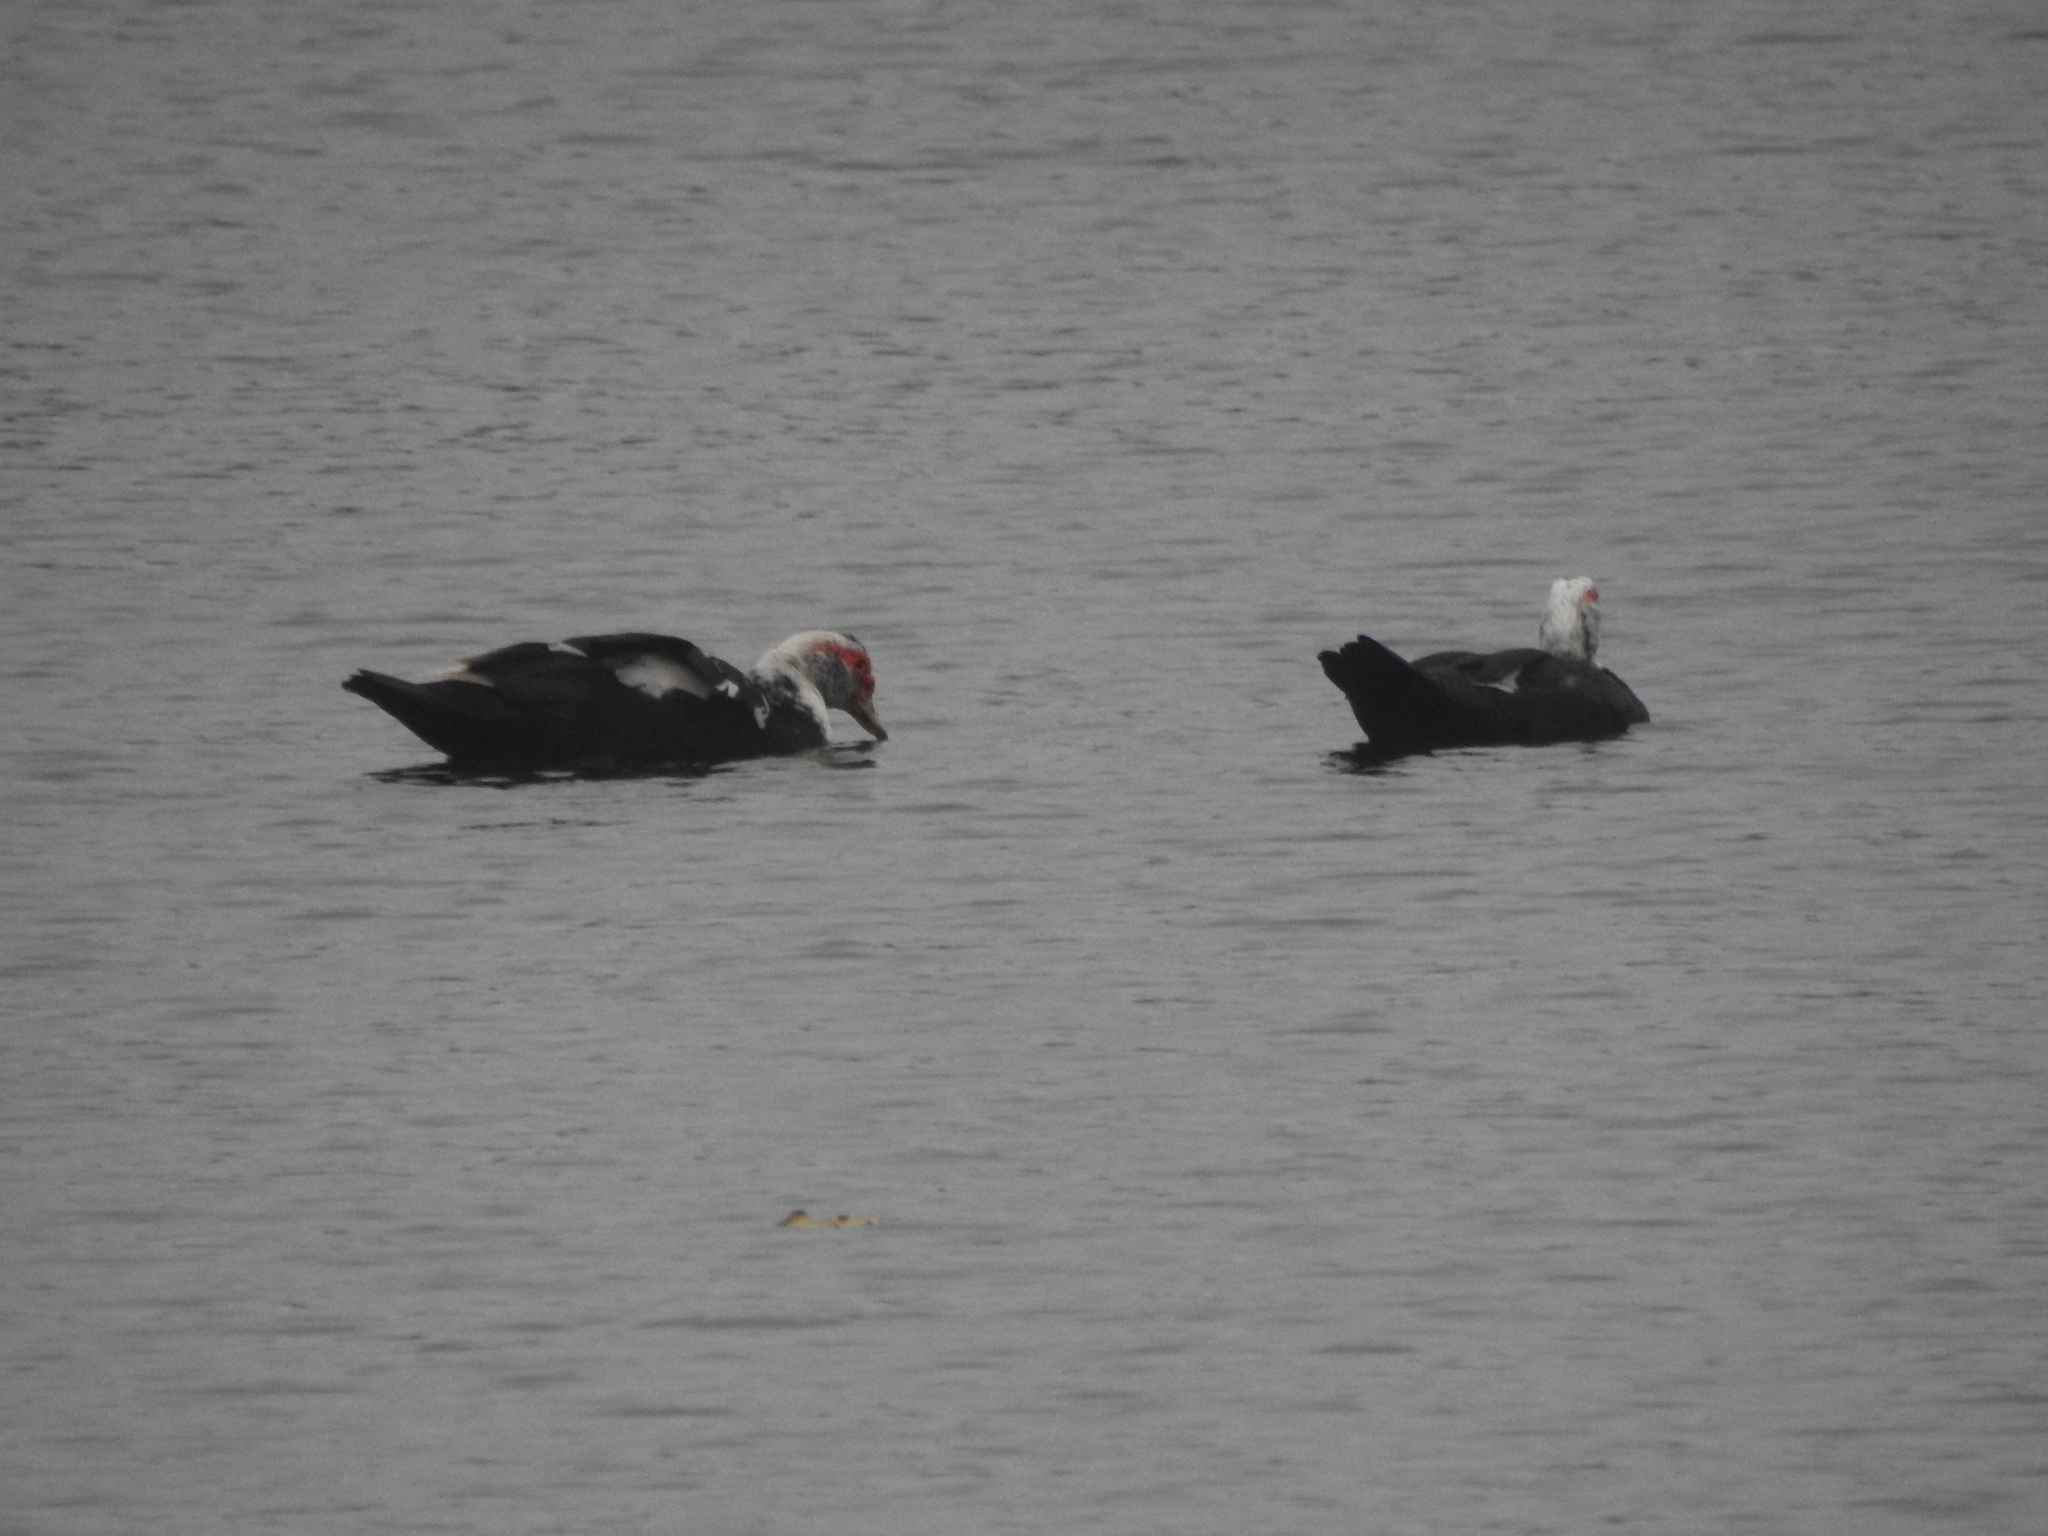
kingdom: Animalia
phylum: Chordata
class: Aves
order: Anseriformes
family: Anatidae
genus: Cairina
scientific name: Cairina moschata
